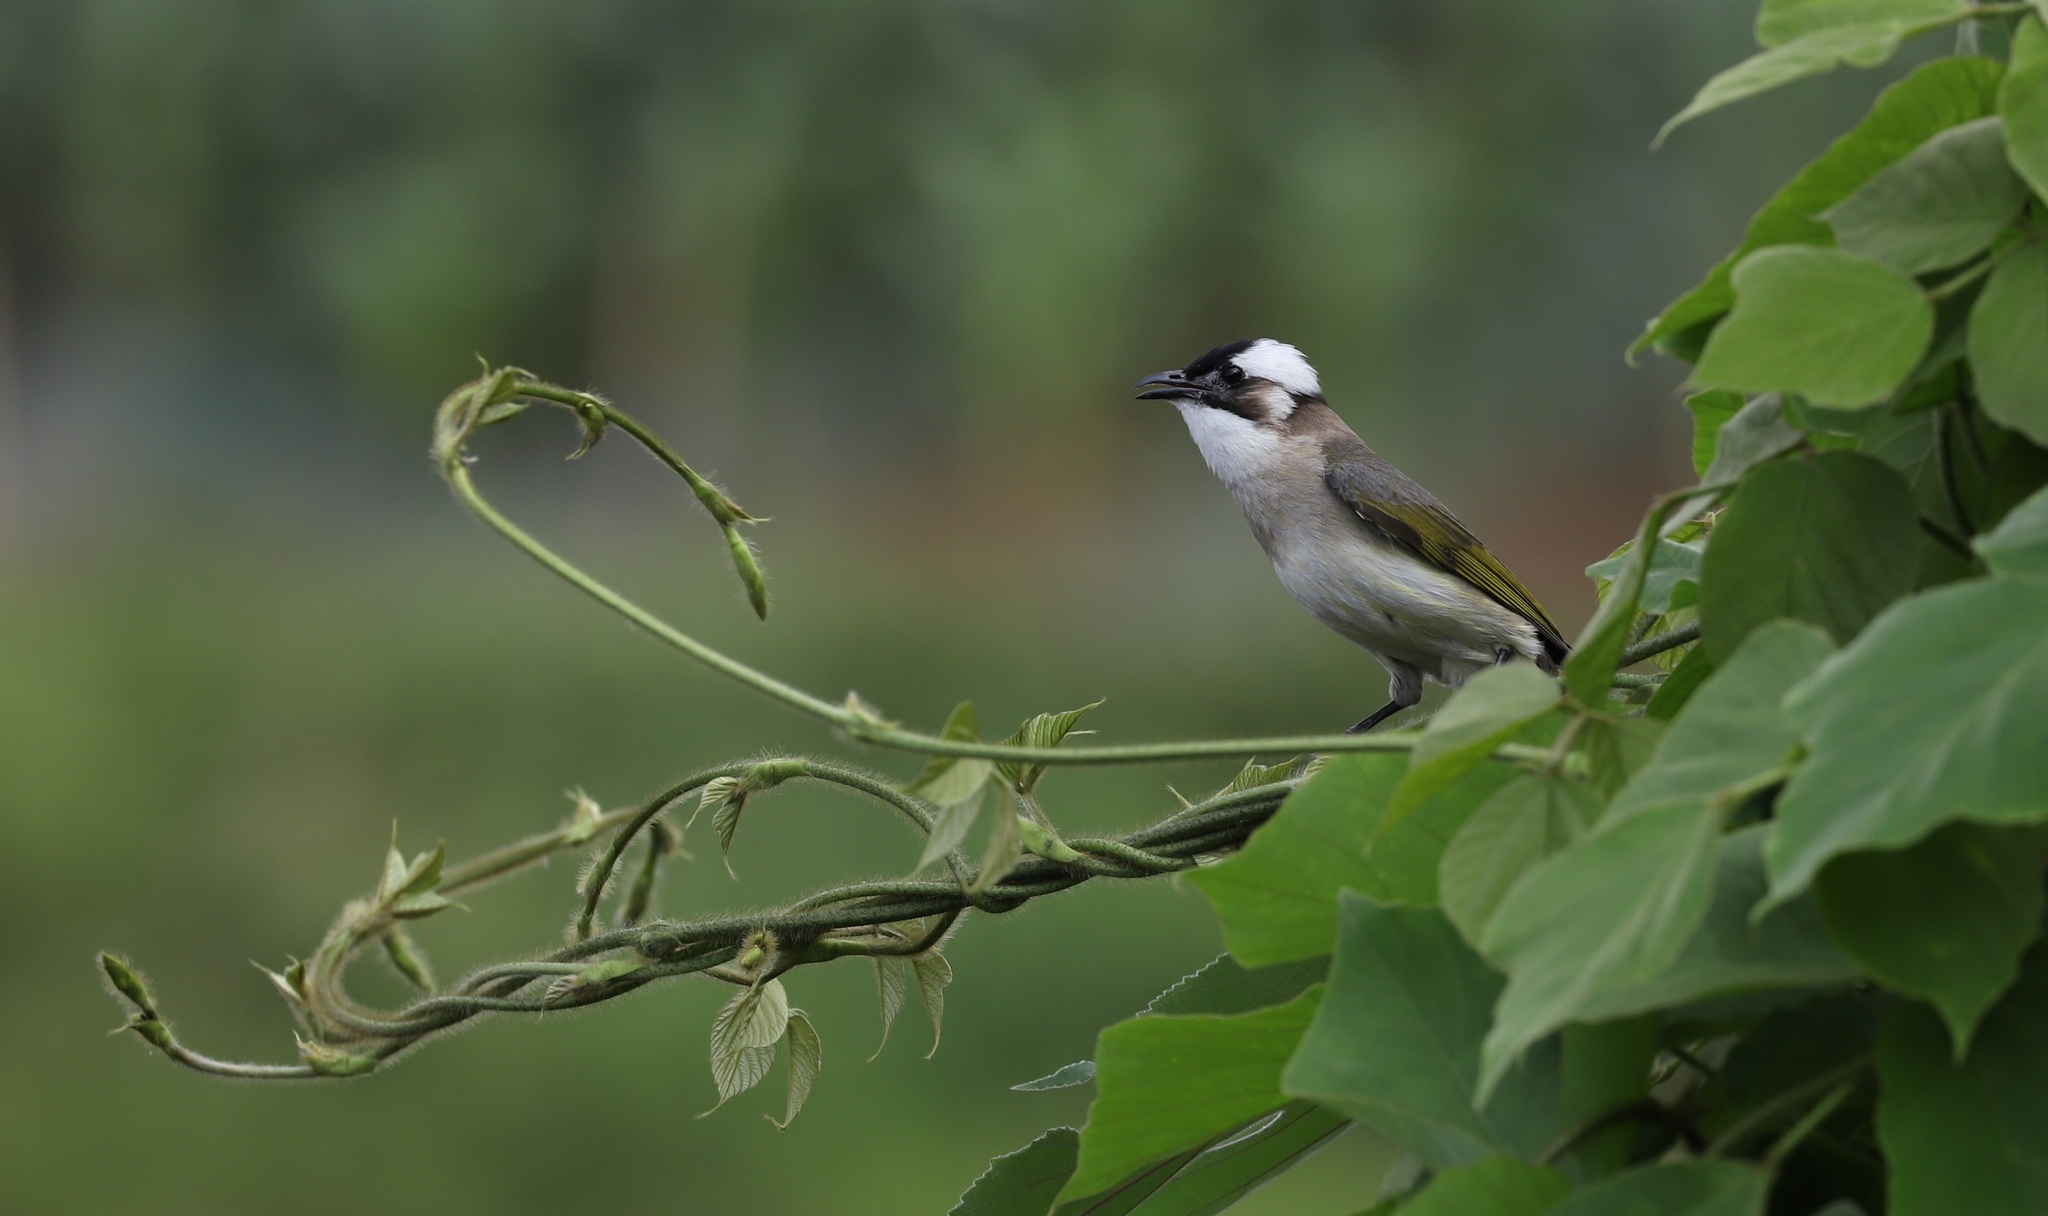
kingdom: Animalia
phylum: Chordata
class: Aves
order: Passeriformes
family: Pycnonotidae
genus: Pycnonotus
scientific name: Pycnonotus sinensis
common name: Light-vented bulbul
